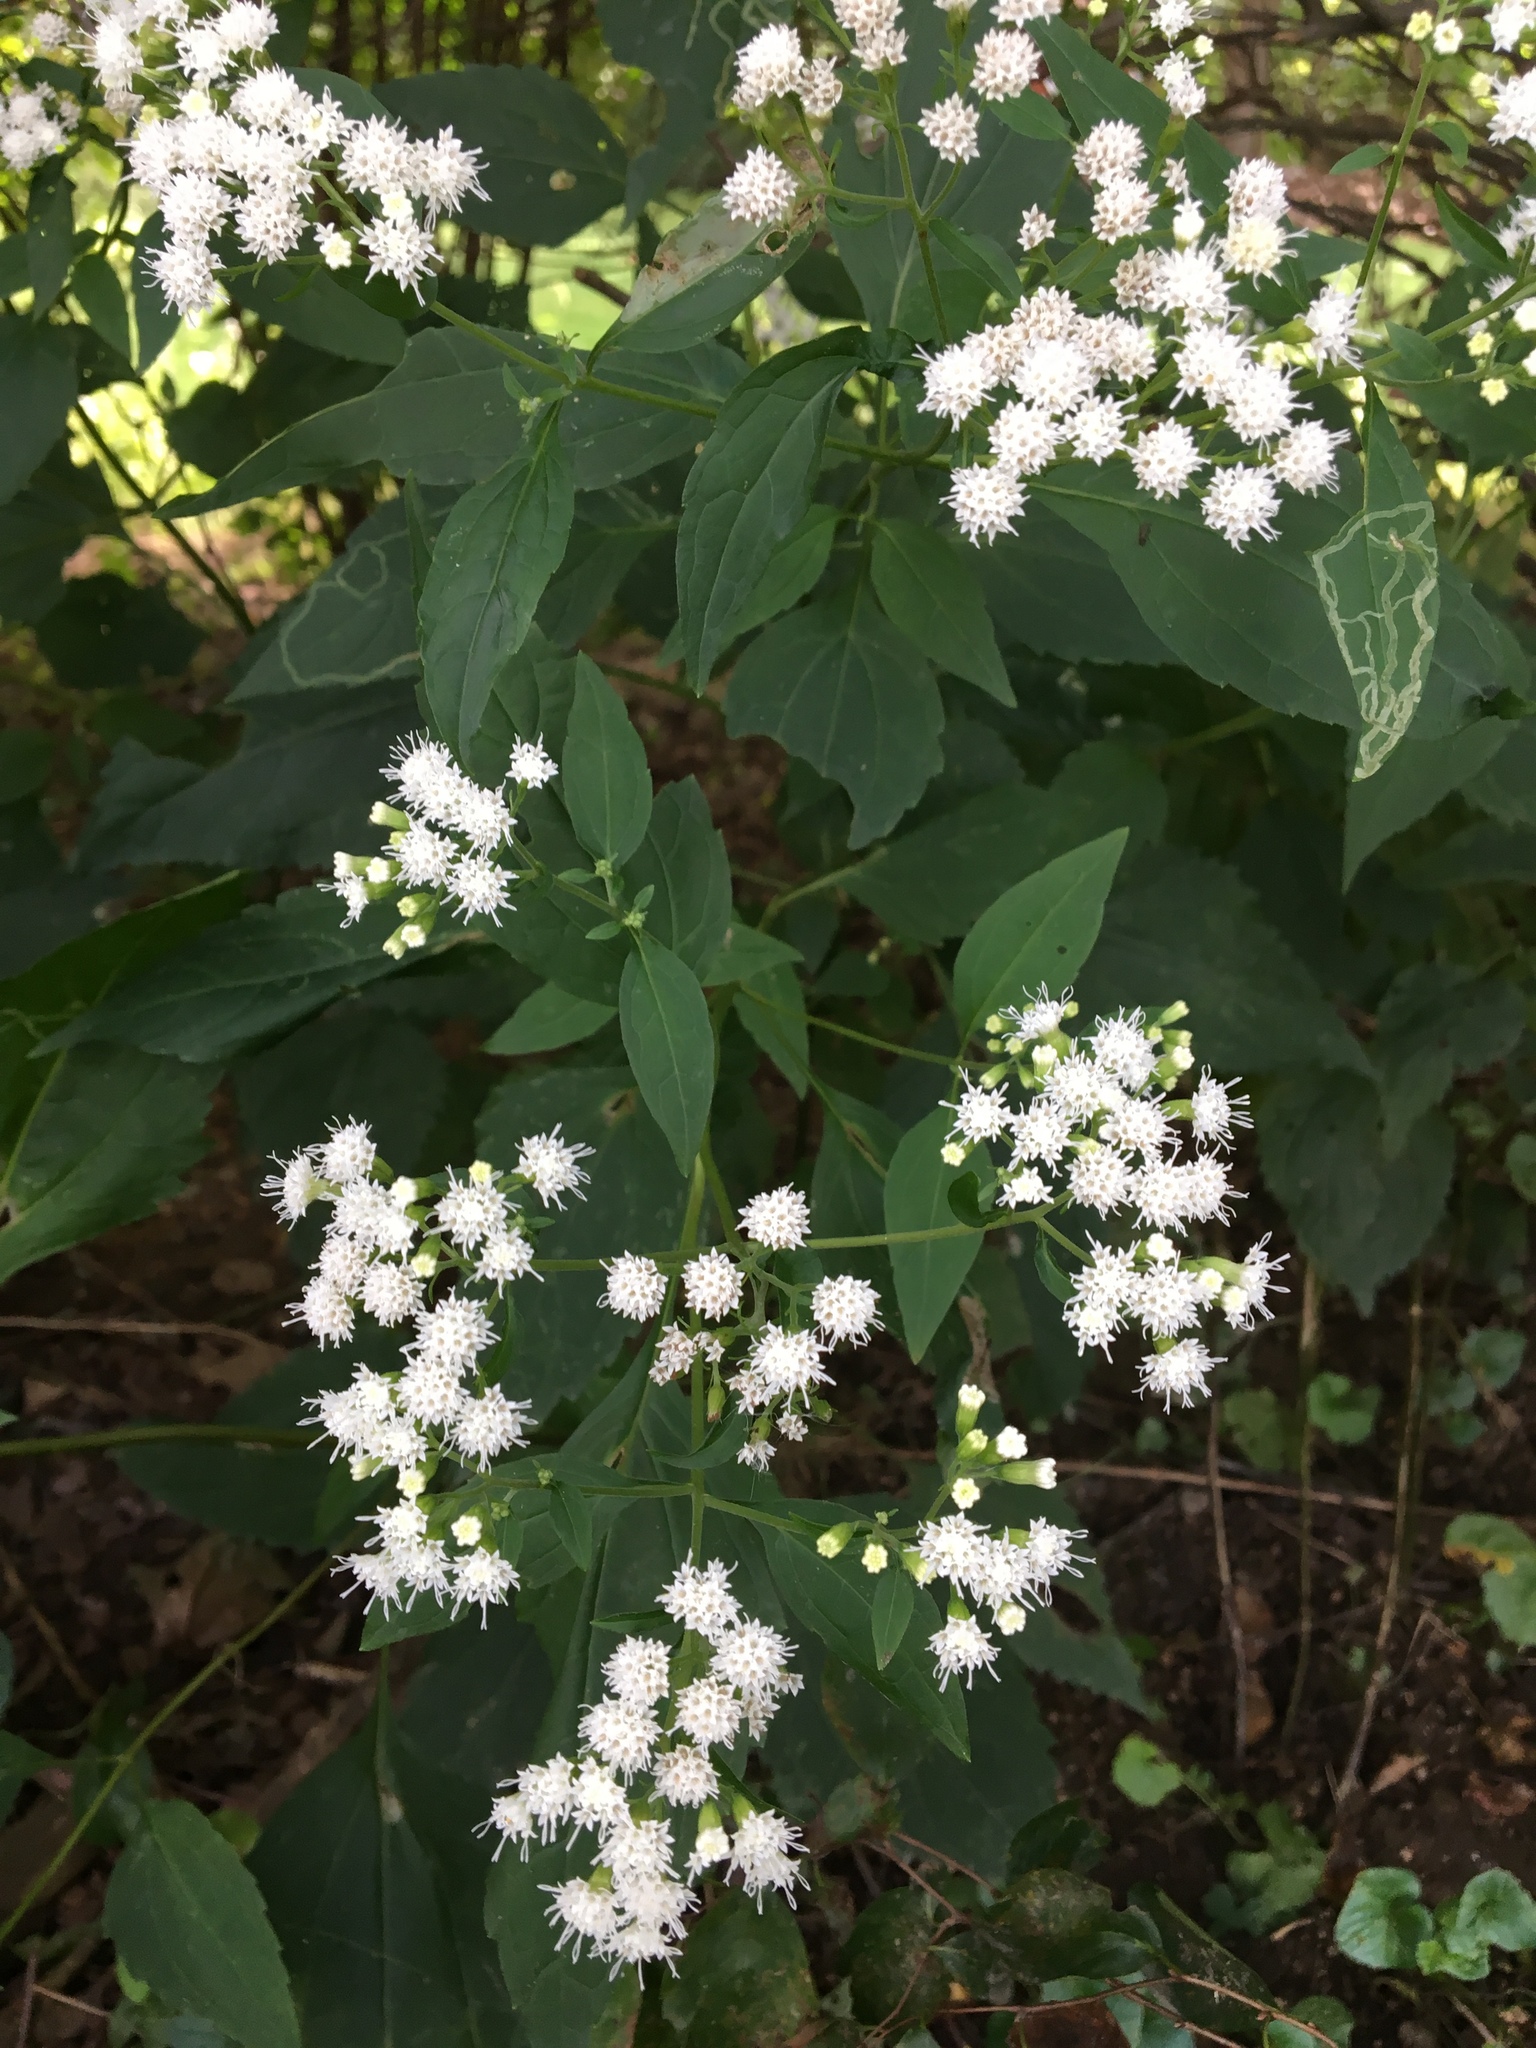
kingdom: Plantae
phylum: Tracheophyta
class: Magnoliopsida
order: Asterales
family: Asteraceae
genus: Ageratina
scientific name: Ageratina altissima
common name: White snakeroot
